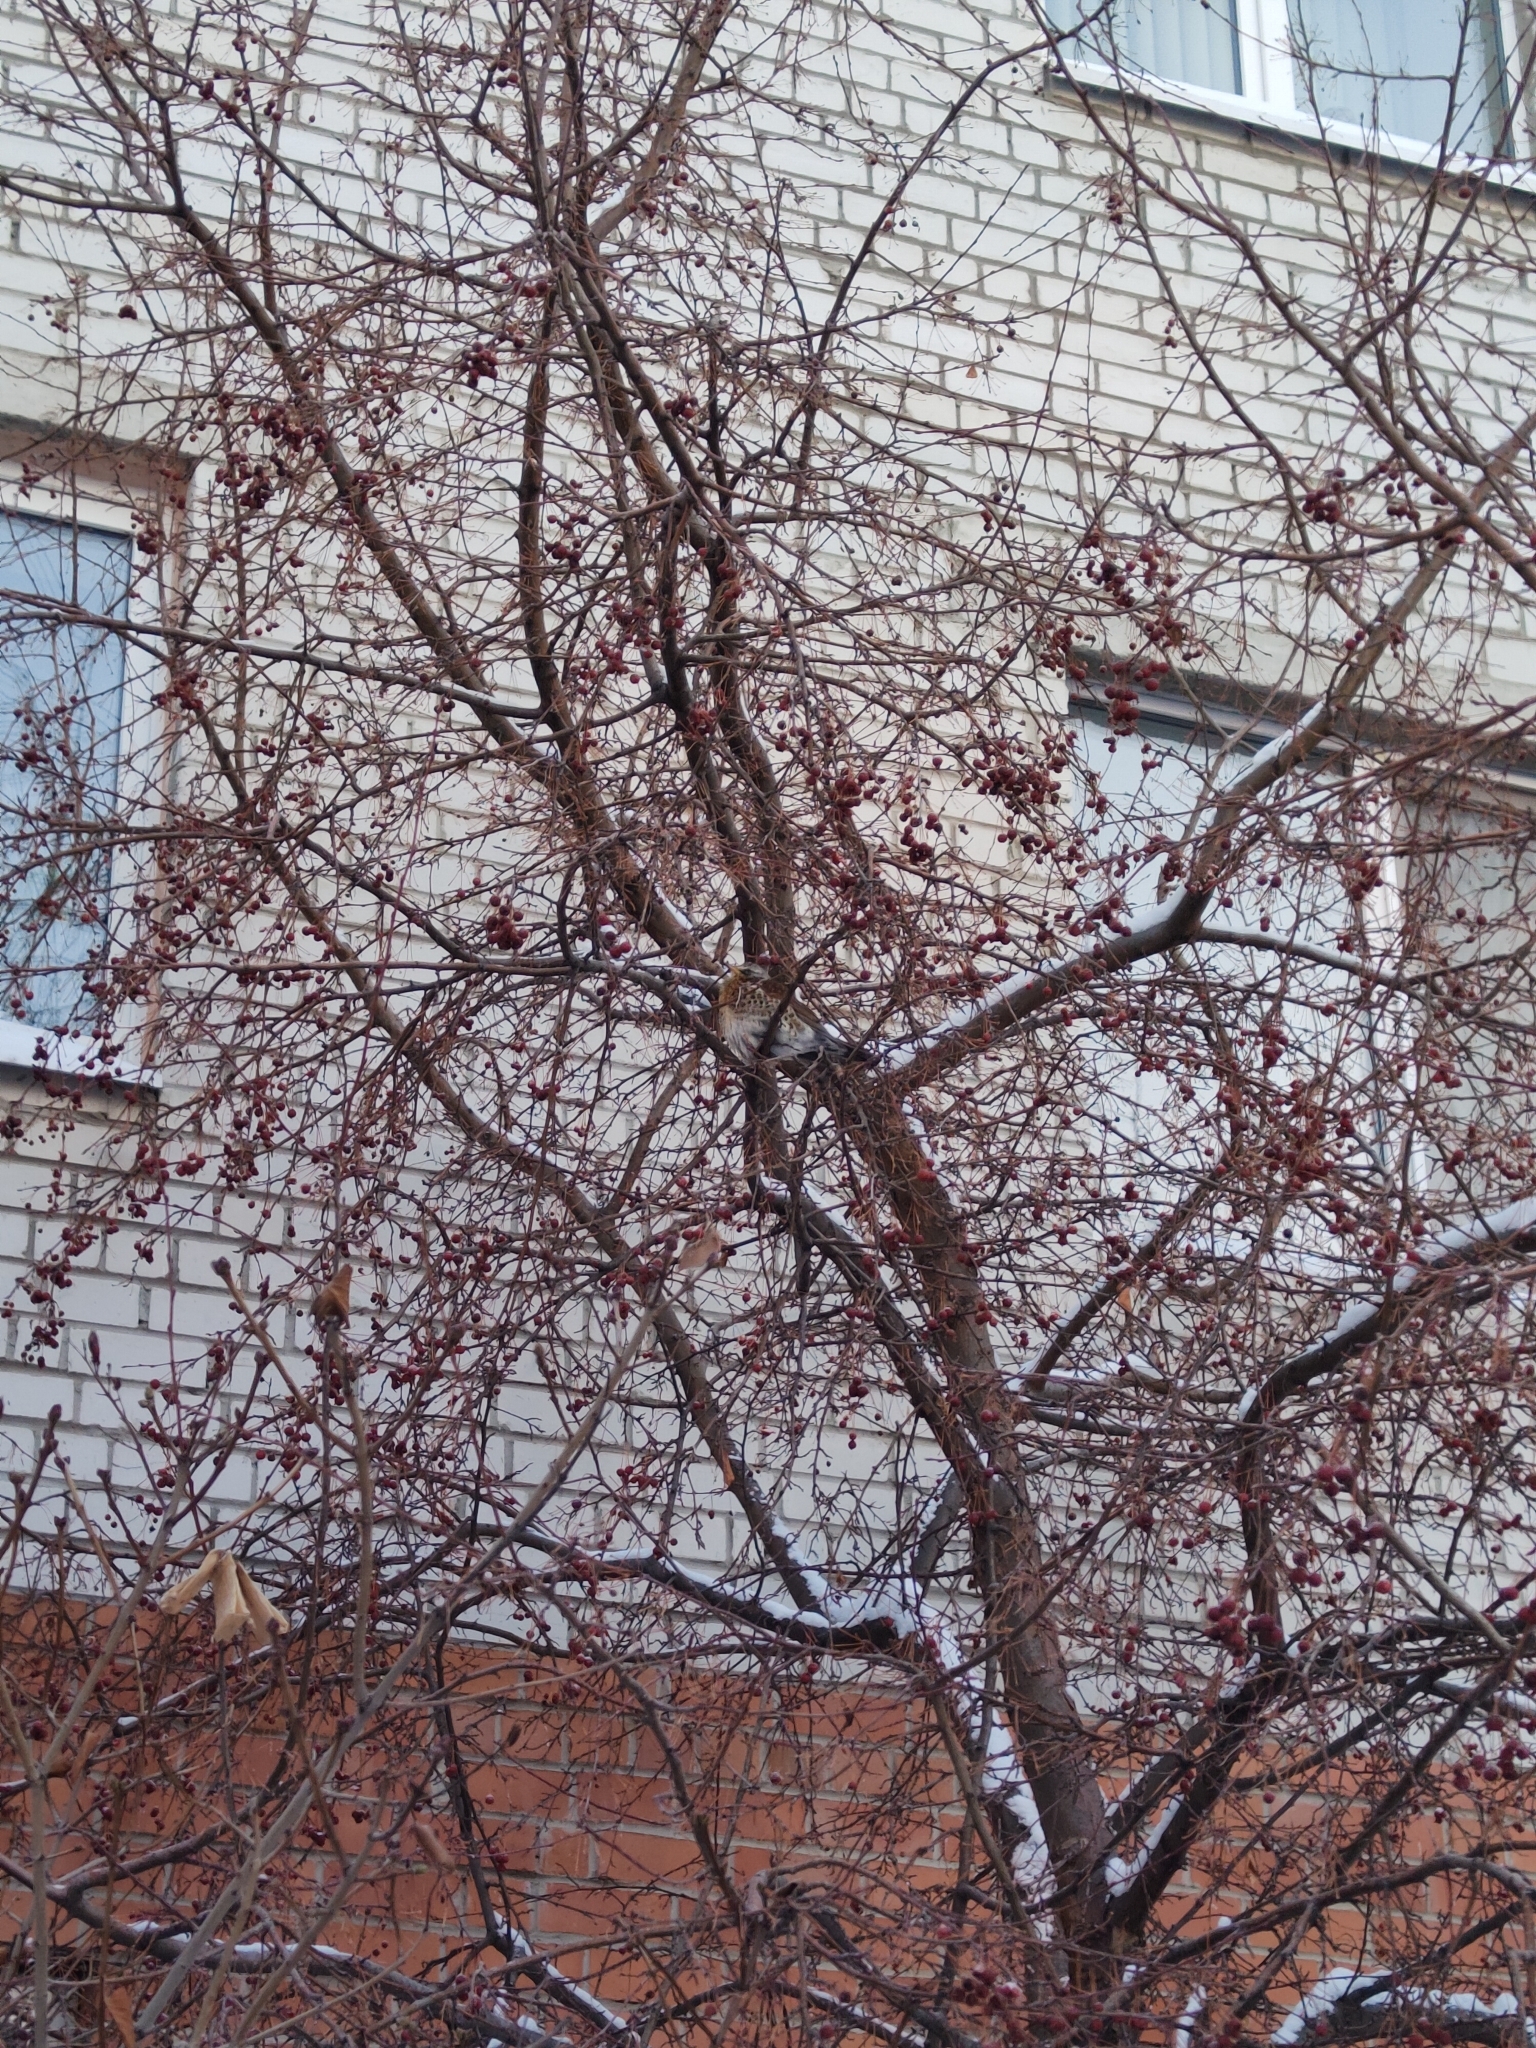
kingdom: Animalia
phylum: Chordata
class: Aves
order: Passeriformes
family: Turdidae
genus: Turdus
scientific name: Turdus pilaris
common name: Fieldfare
